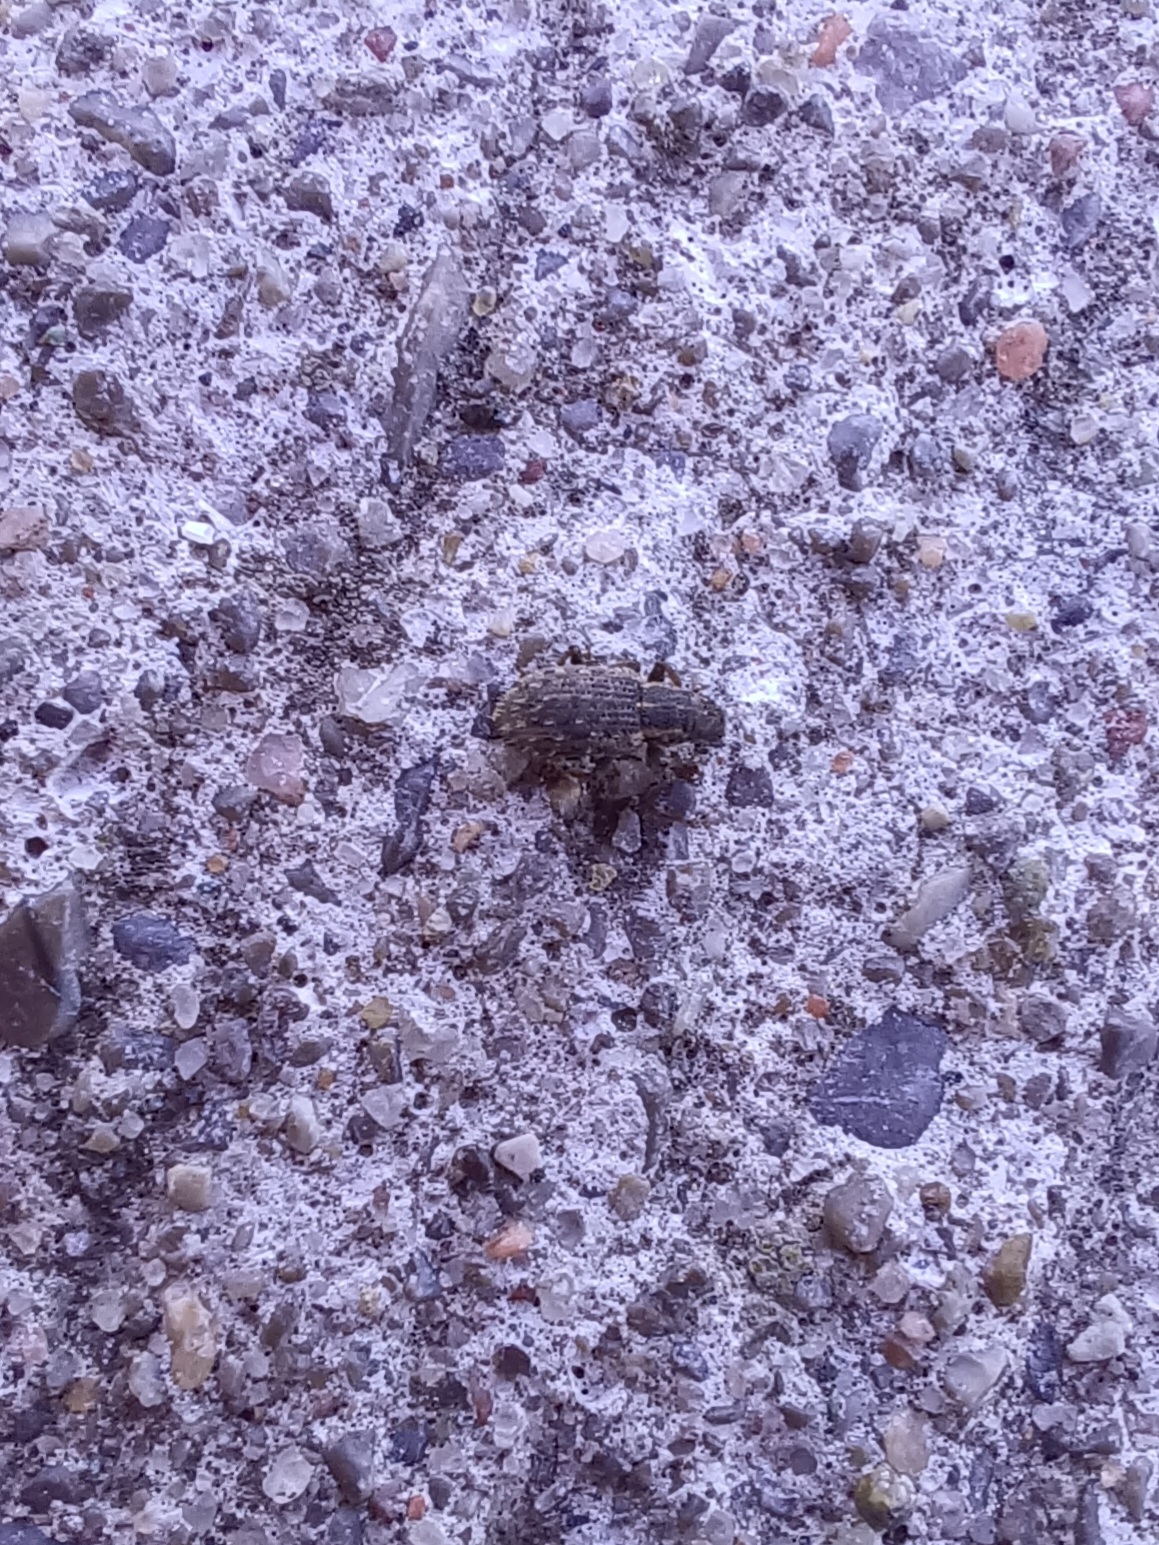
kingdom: Animalia
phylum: Arthropoda
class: Insecta
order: Coleoptera
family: Curculionidae
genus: Sitona
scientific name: Sitona hispidulus
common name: Clover weevil
